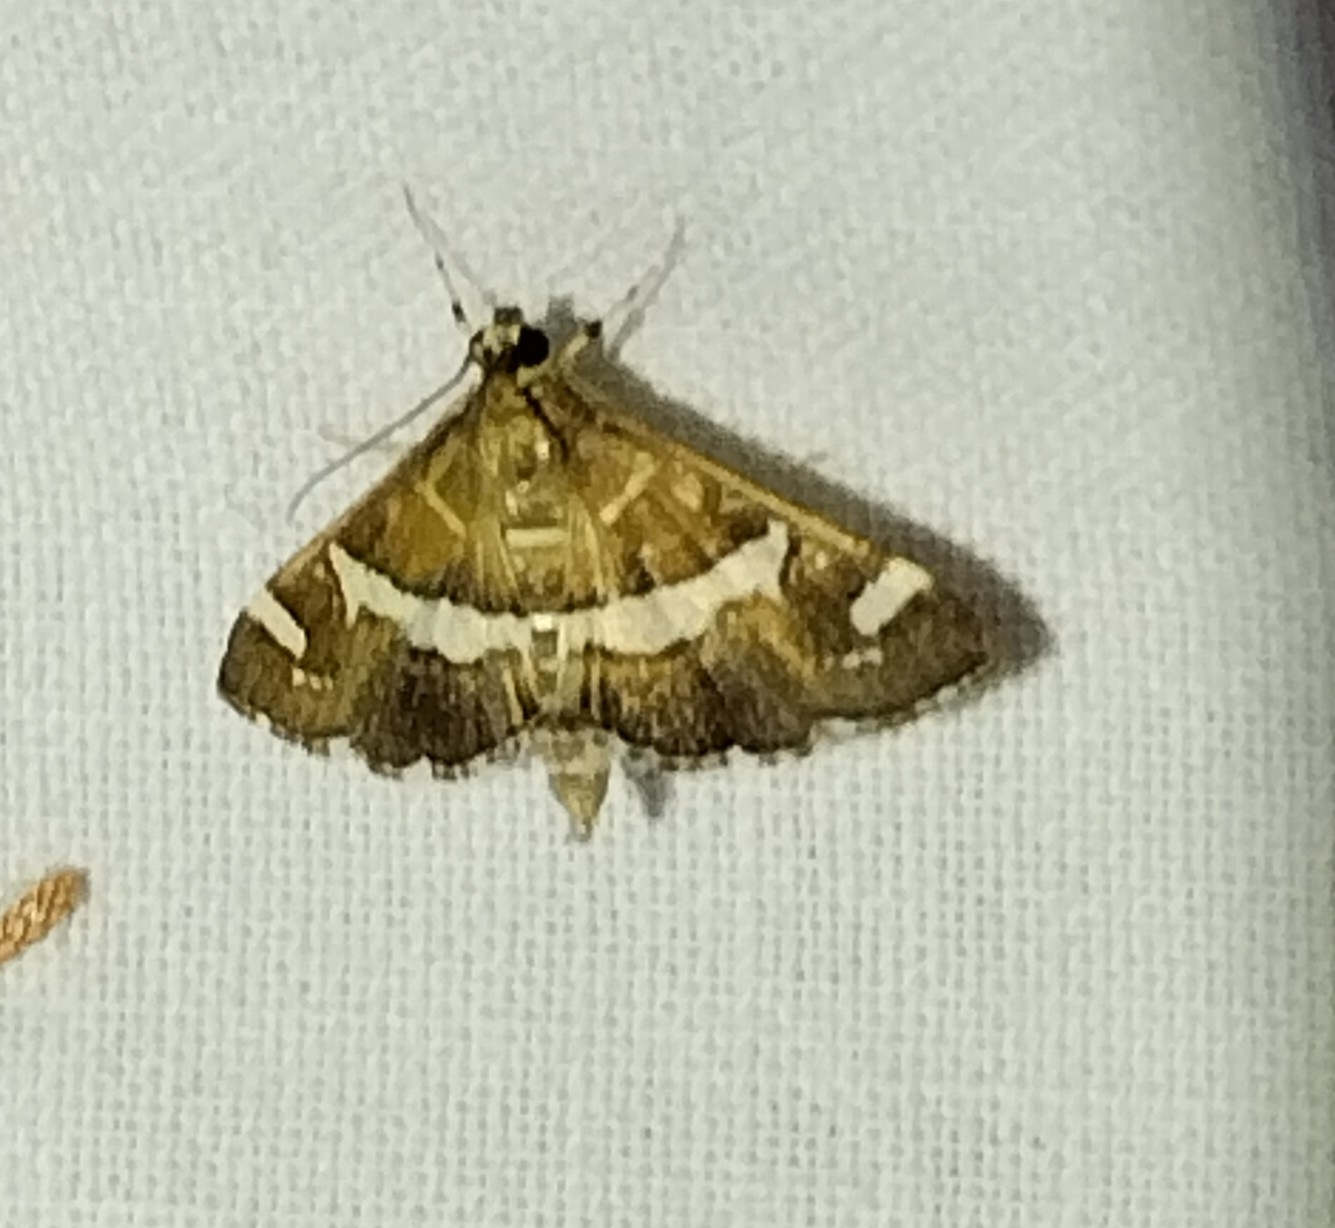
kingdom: Animalia
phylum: Arthropoda
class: Insecta
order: Lepidoptera
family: Crambidae
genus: Spoladea
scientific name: Spoladea recurvalis
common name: Beet webworm moth
